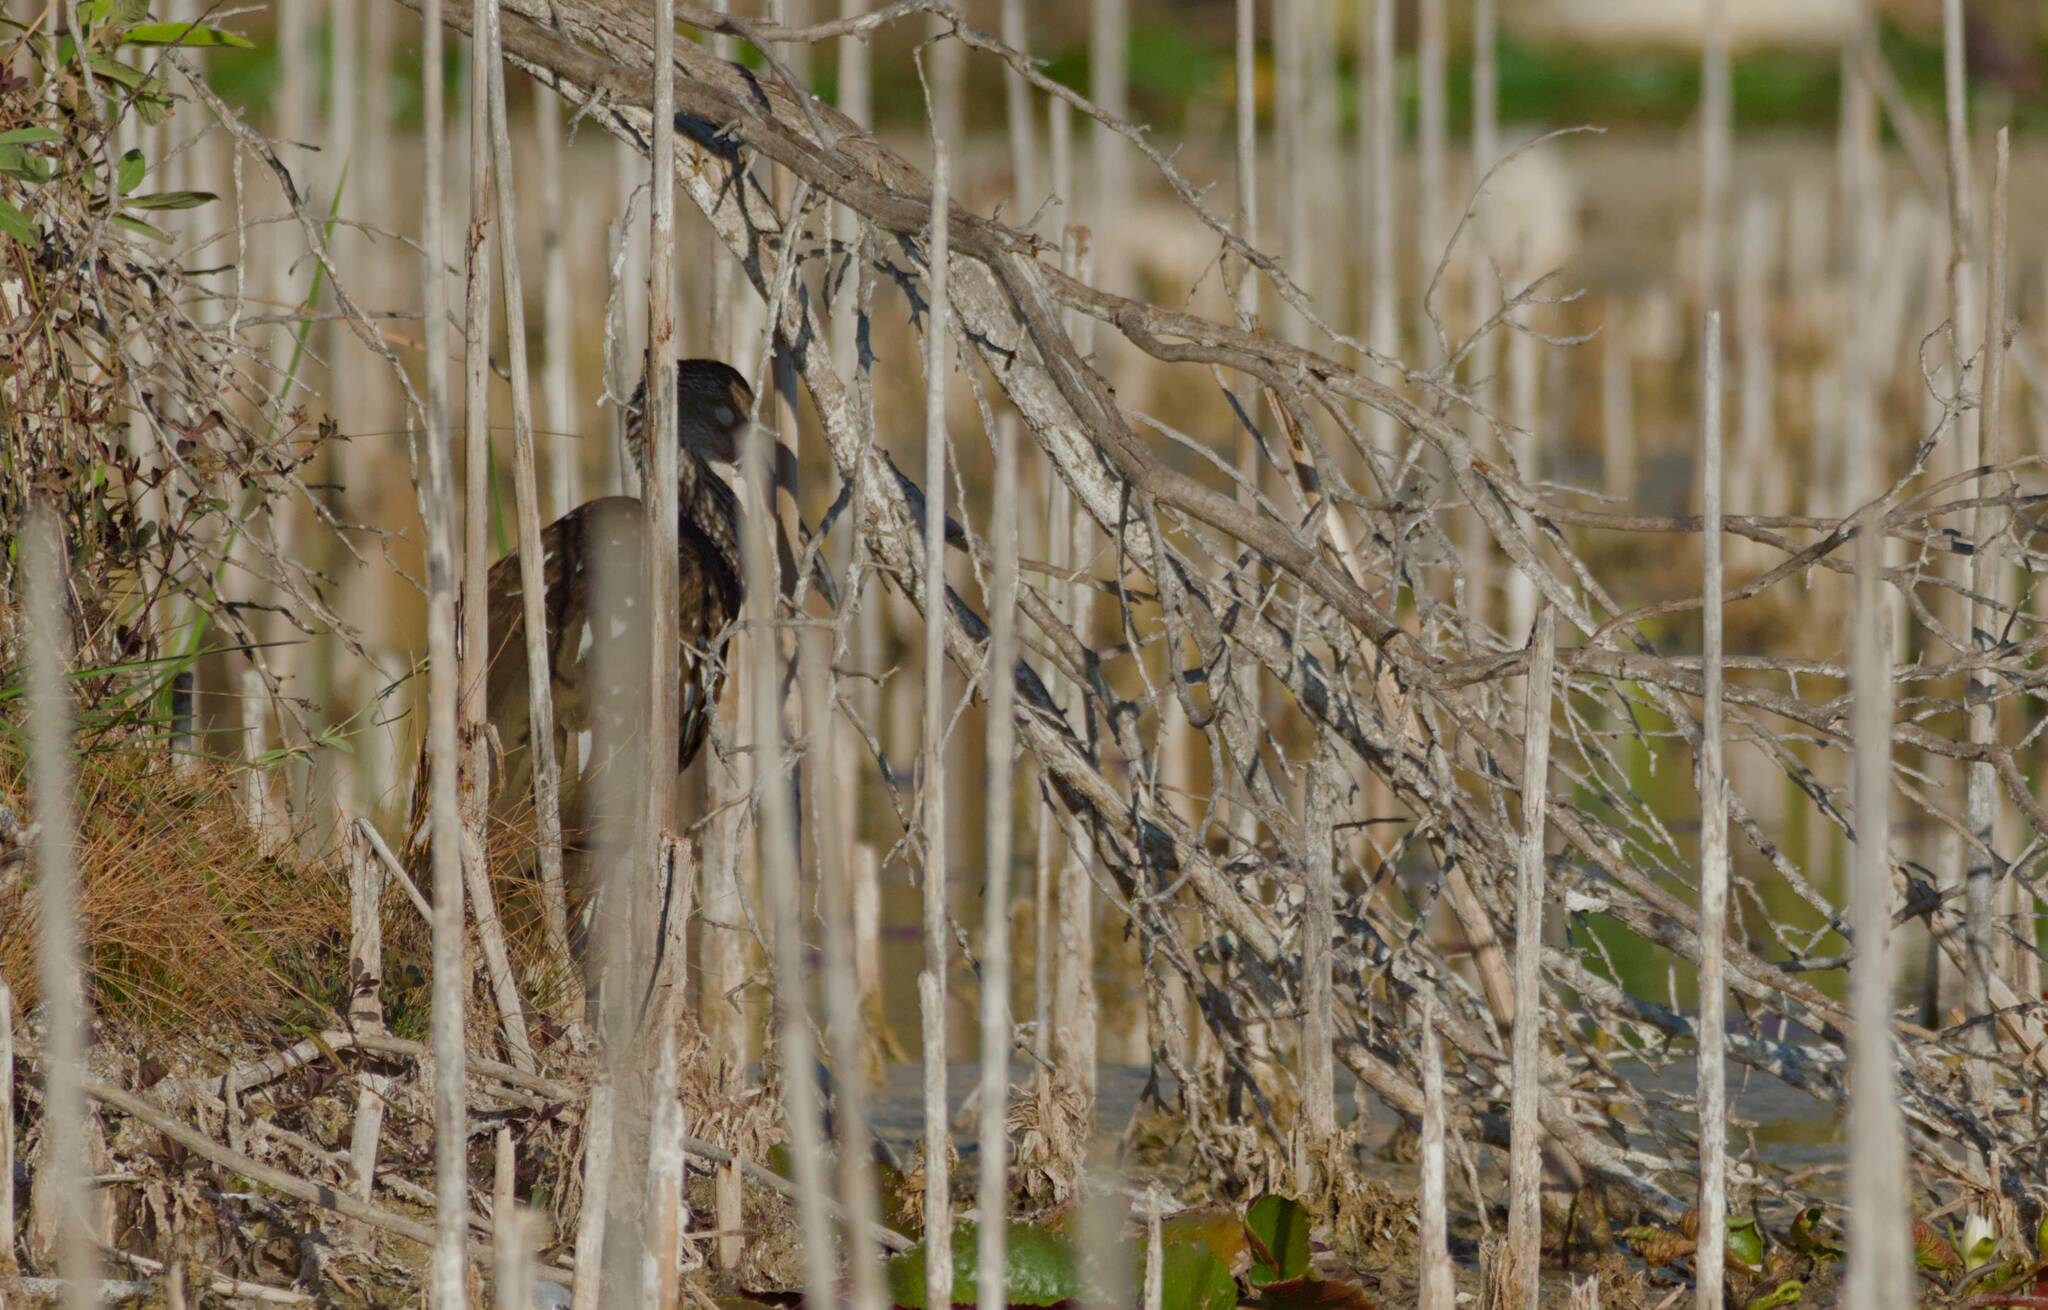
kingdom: Animalia
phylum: Chordata
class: Aves
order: Gruiformes
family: Aramidae
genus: Aramus
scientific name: Aramus guarauna
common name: Limpkin
